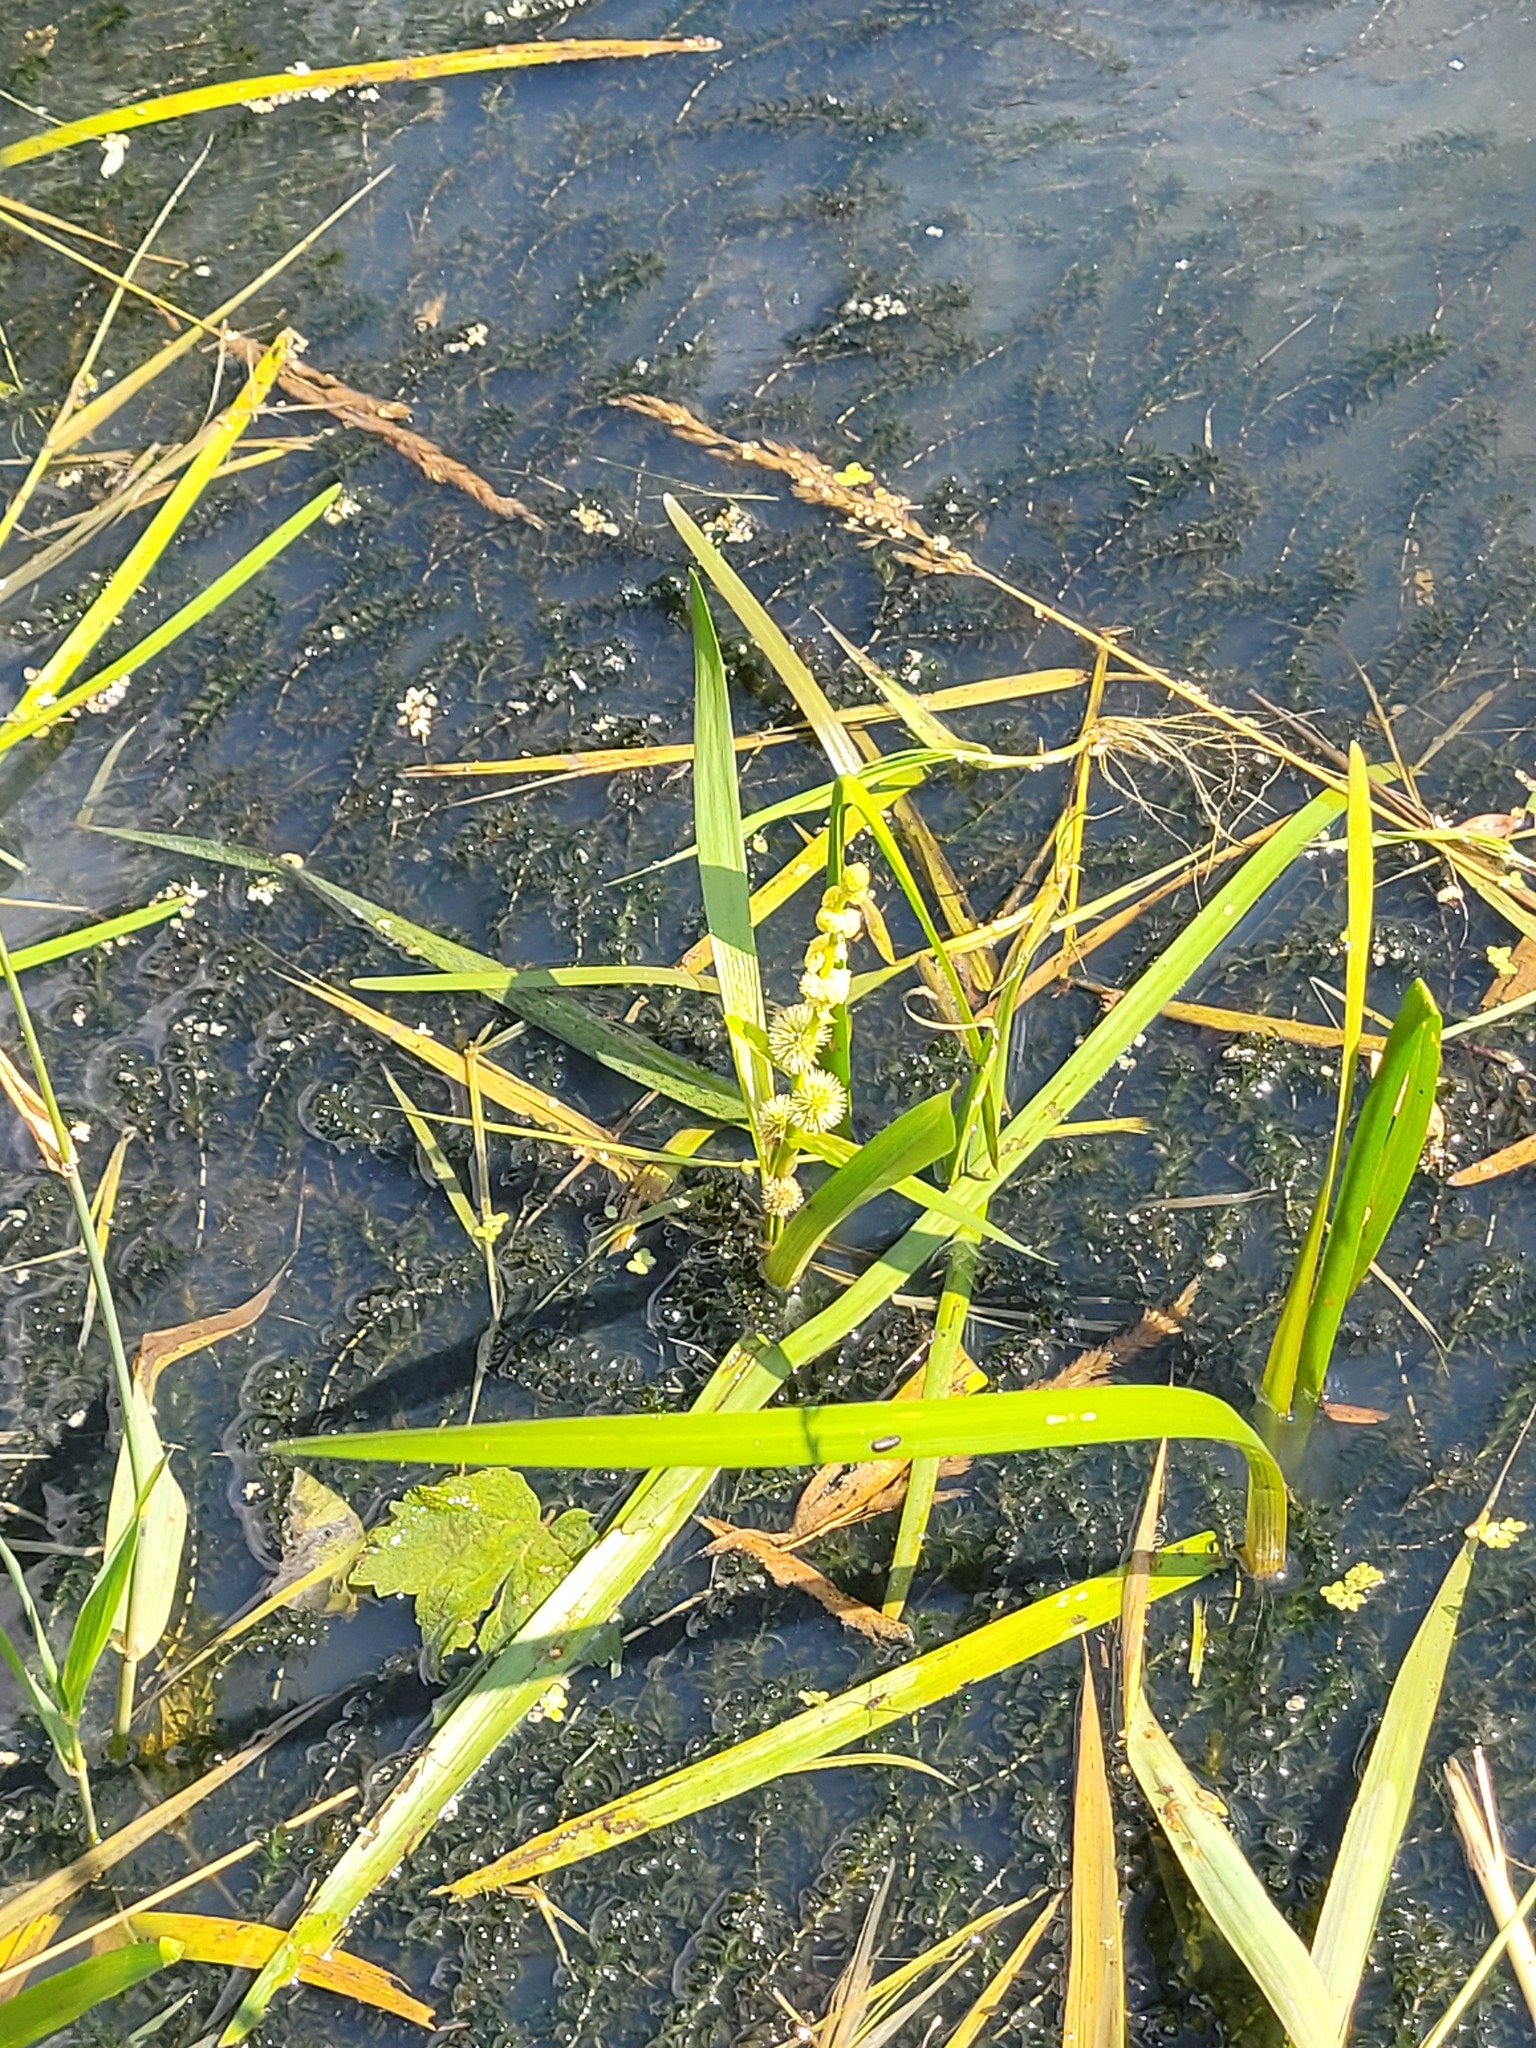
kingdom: Plantae
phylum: Tracheophyta
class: Liliopsida
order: Poales
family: Typhaceae
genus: Sparganium
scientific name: Sparganium emersum
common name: Unbranched bur-reed
